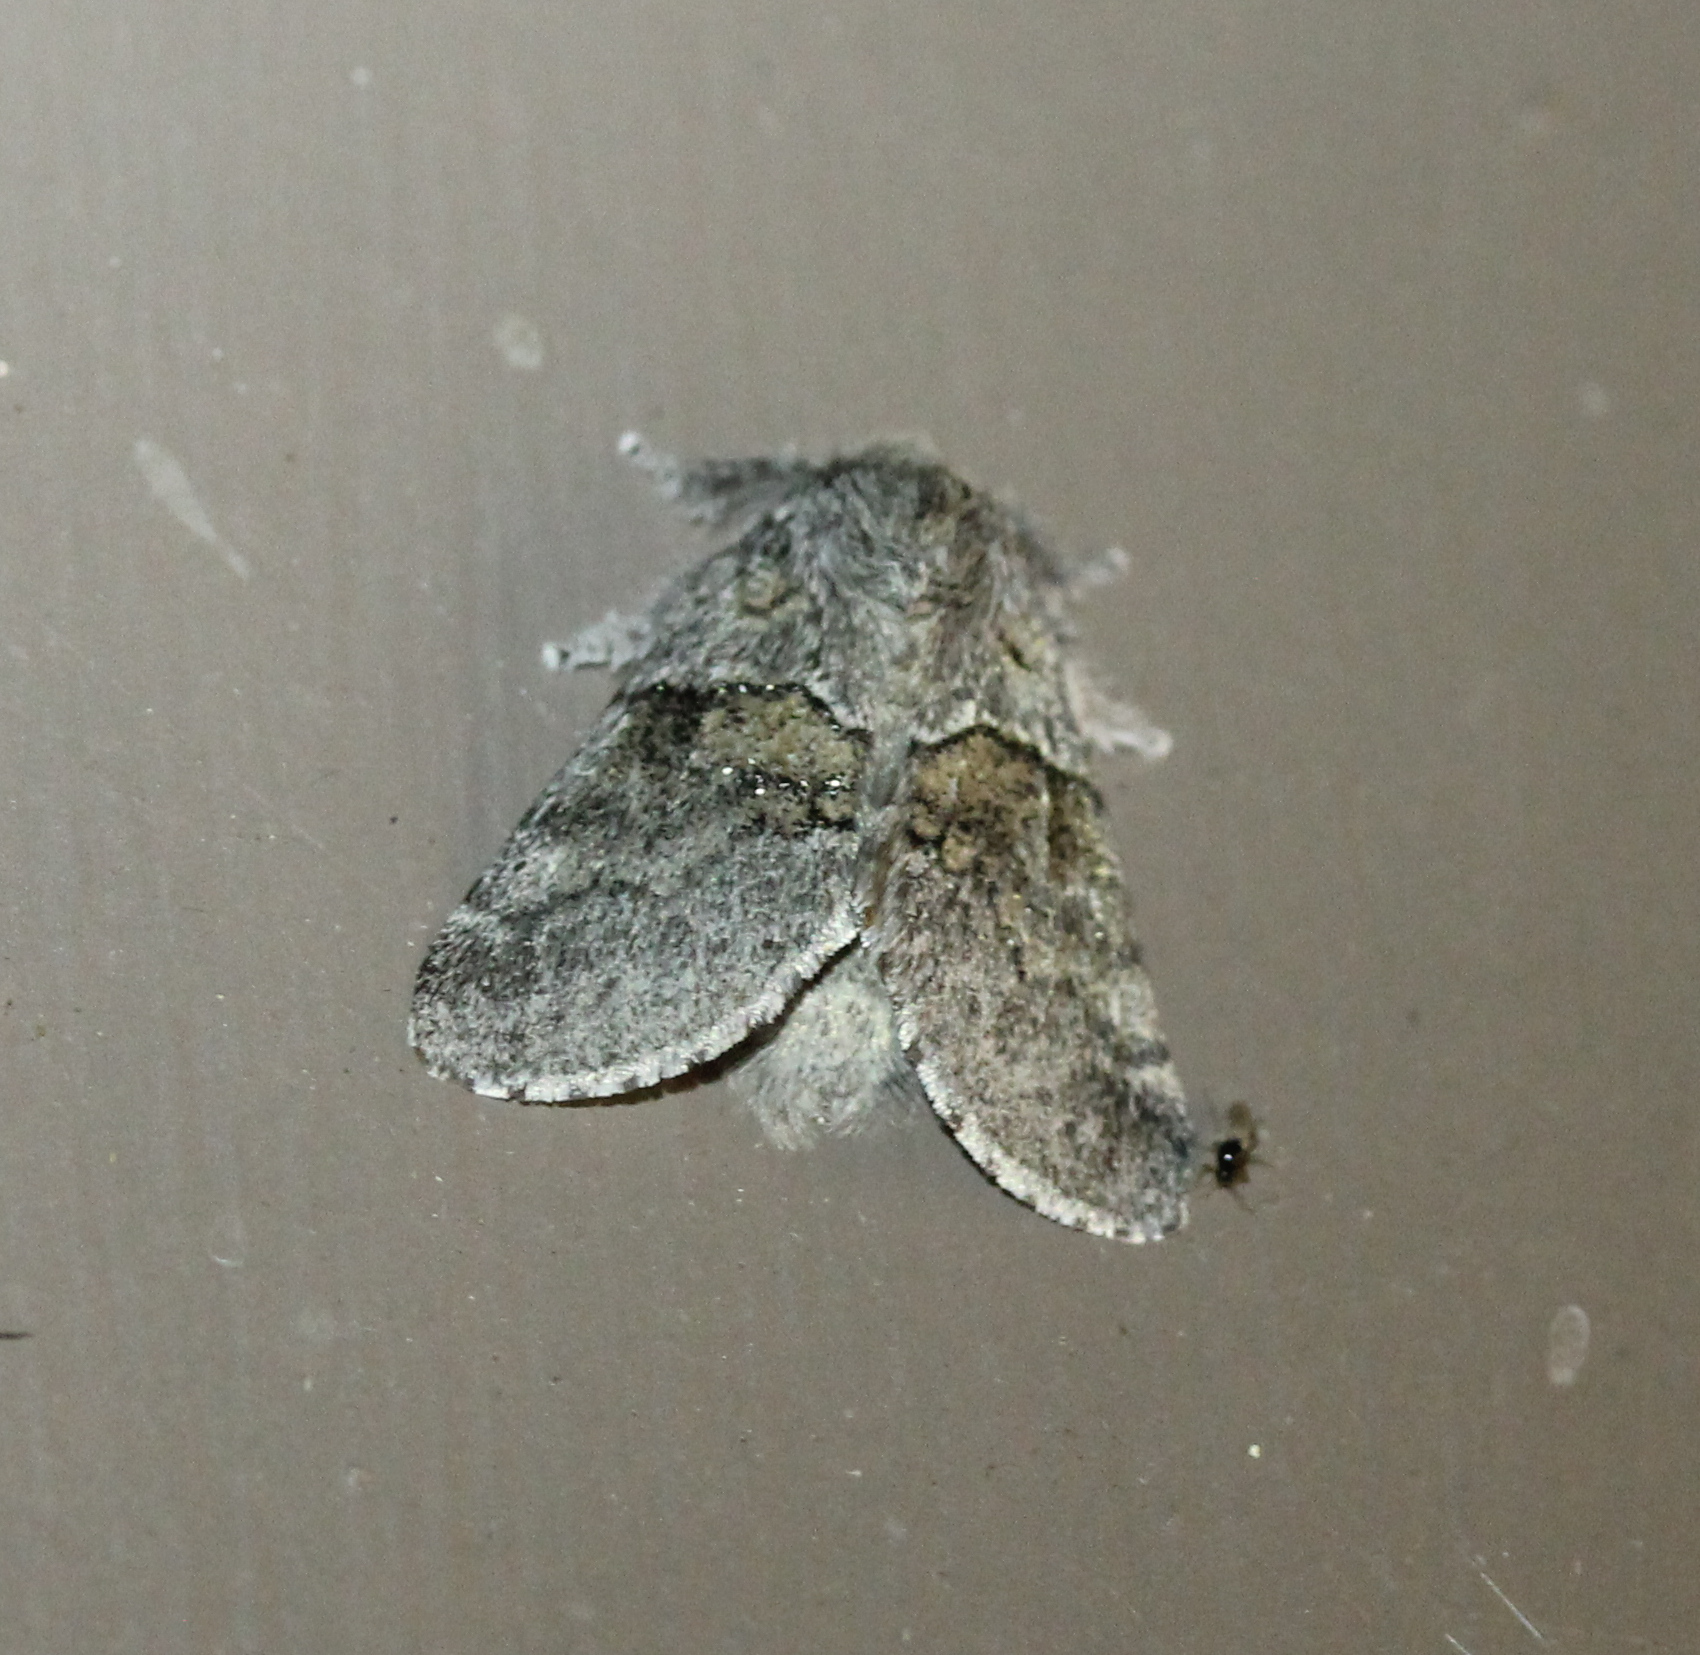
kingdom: Animalia
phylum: Arthropoda
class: Insecta
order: Lepidoptera
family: Notodontidae
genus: Gluphisia
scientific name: Gluphisia septentrionis
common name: Common gluphisia
